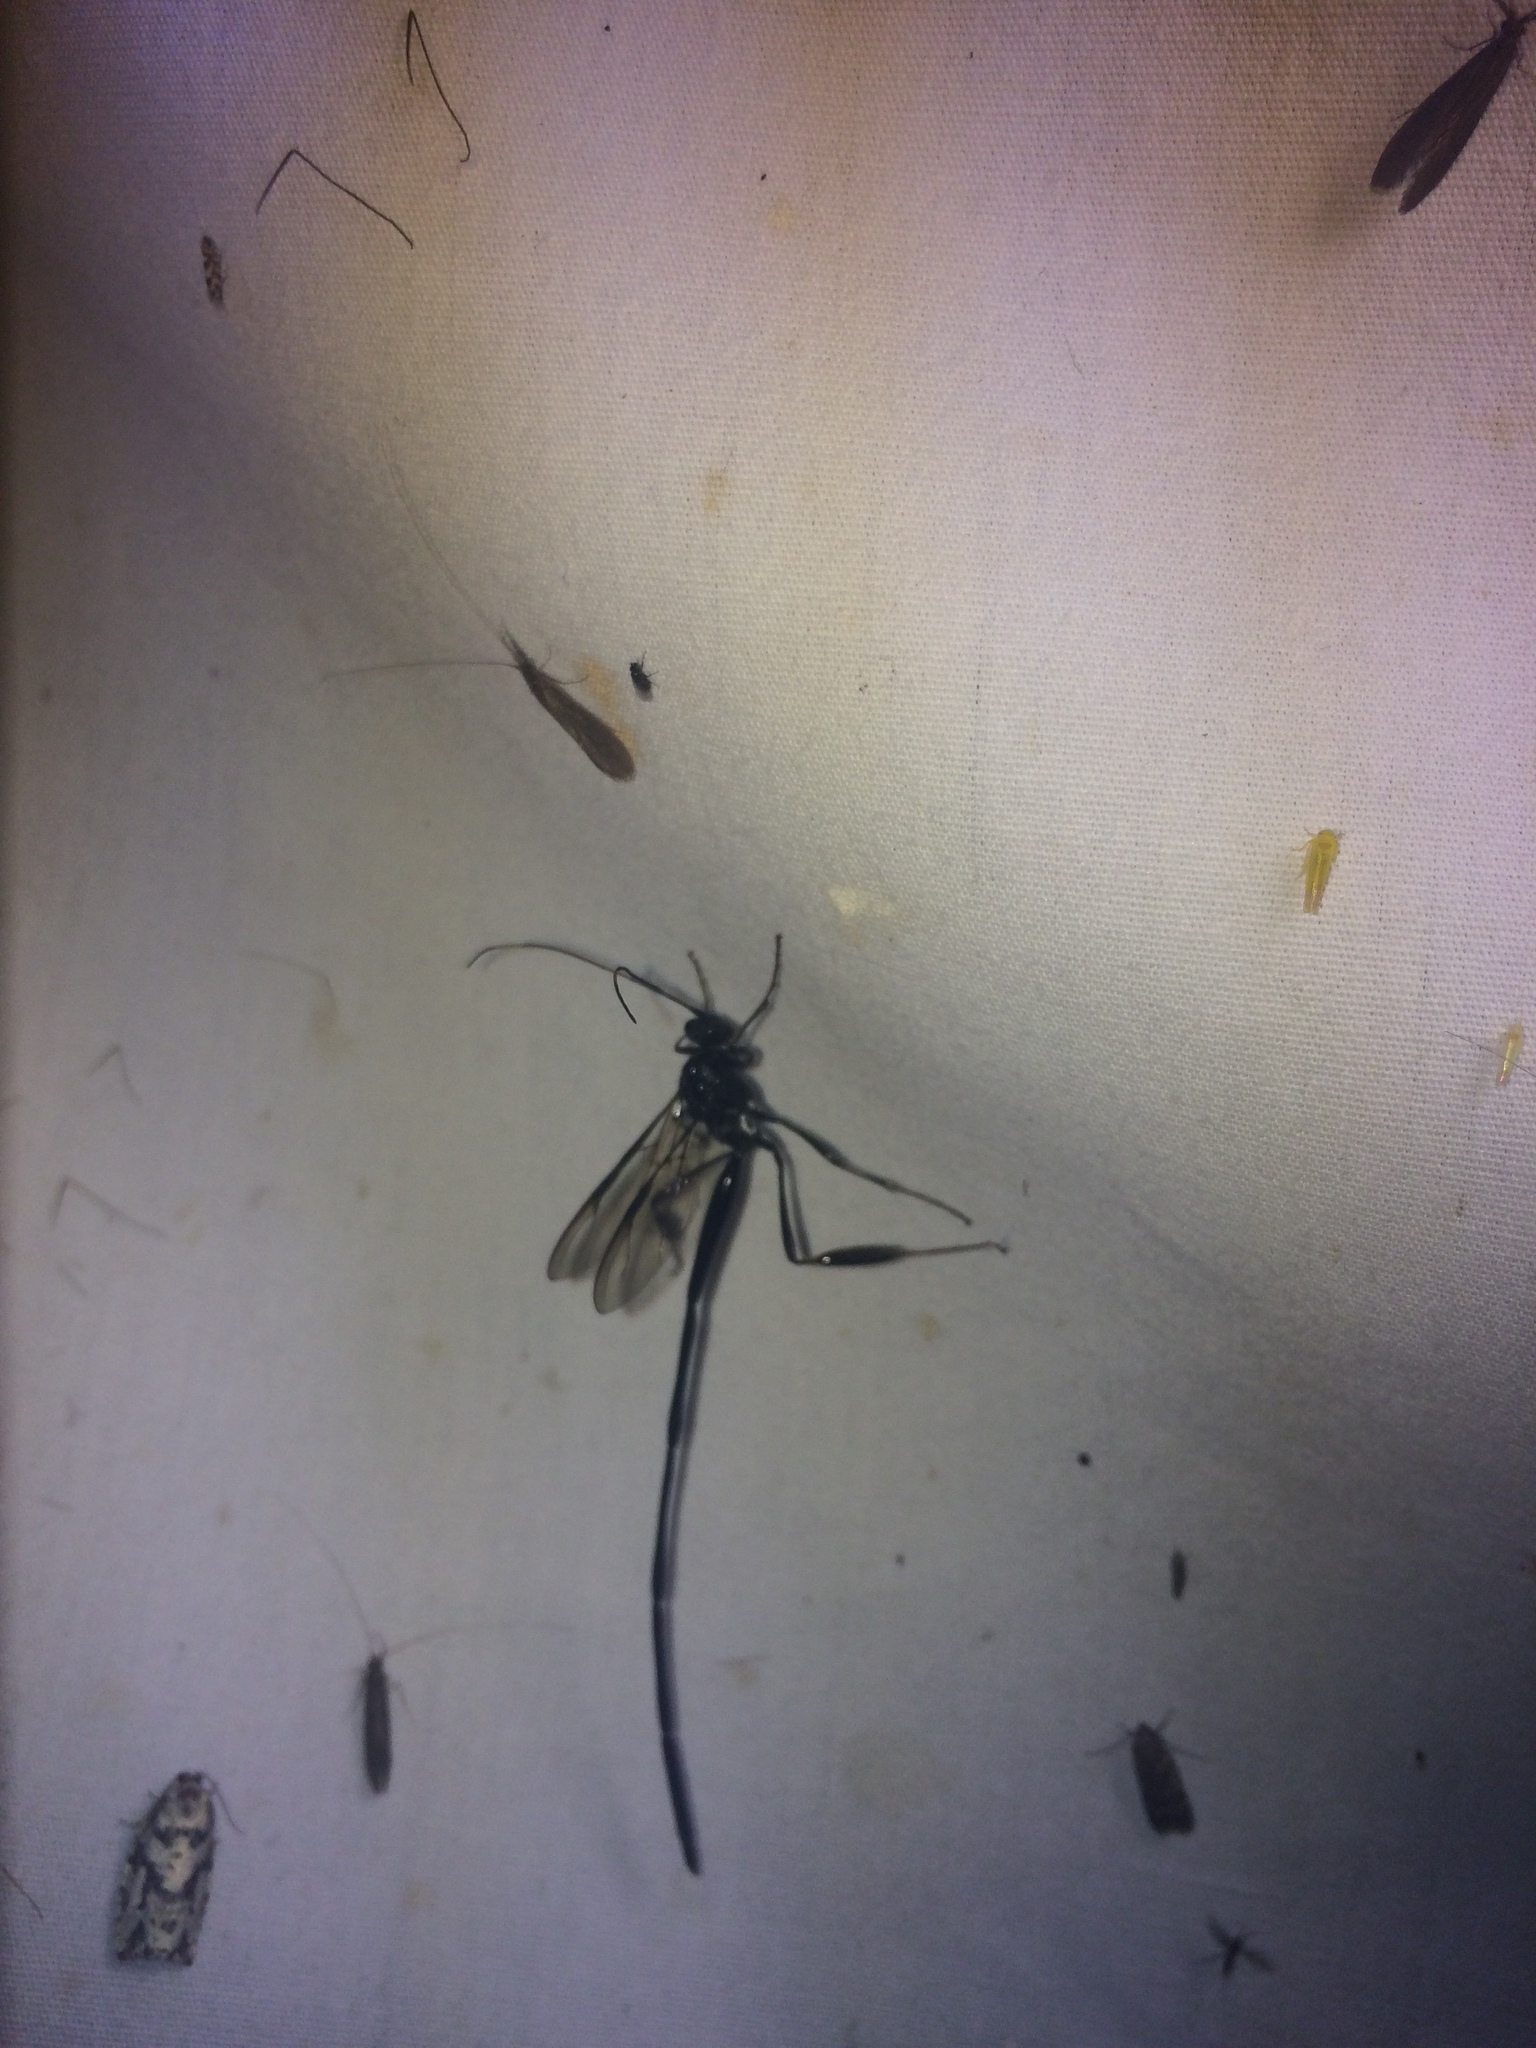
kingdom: Animalia
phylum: Arthropoda
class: Insecta
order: Hymenoptera
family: Pelecinidae
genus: Pelecinus
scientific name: Pelecinus polyturator
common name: American pelecinid wasp
